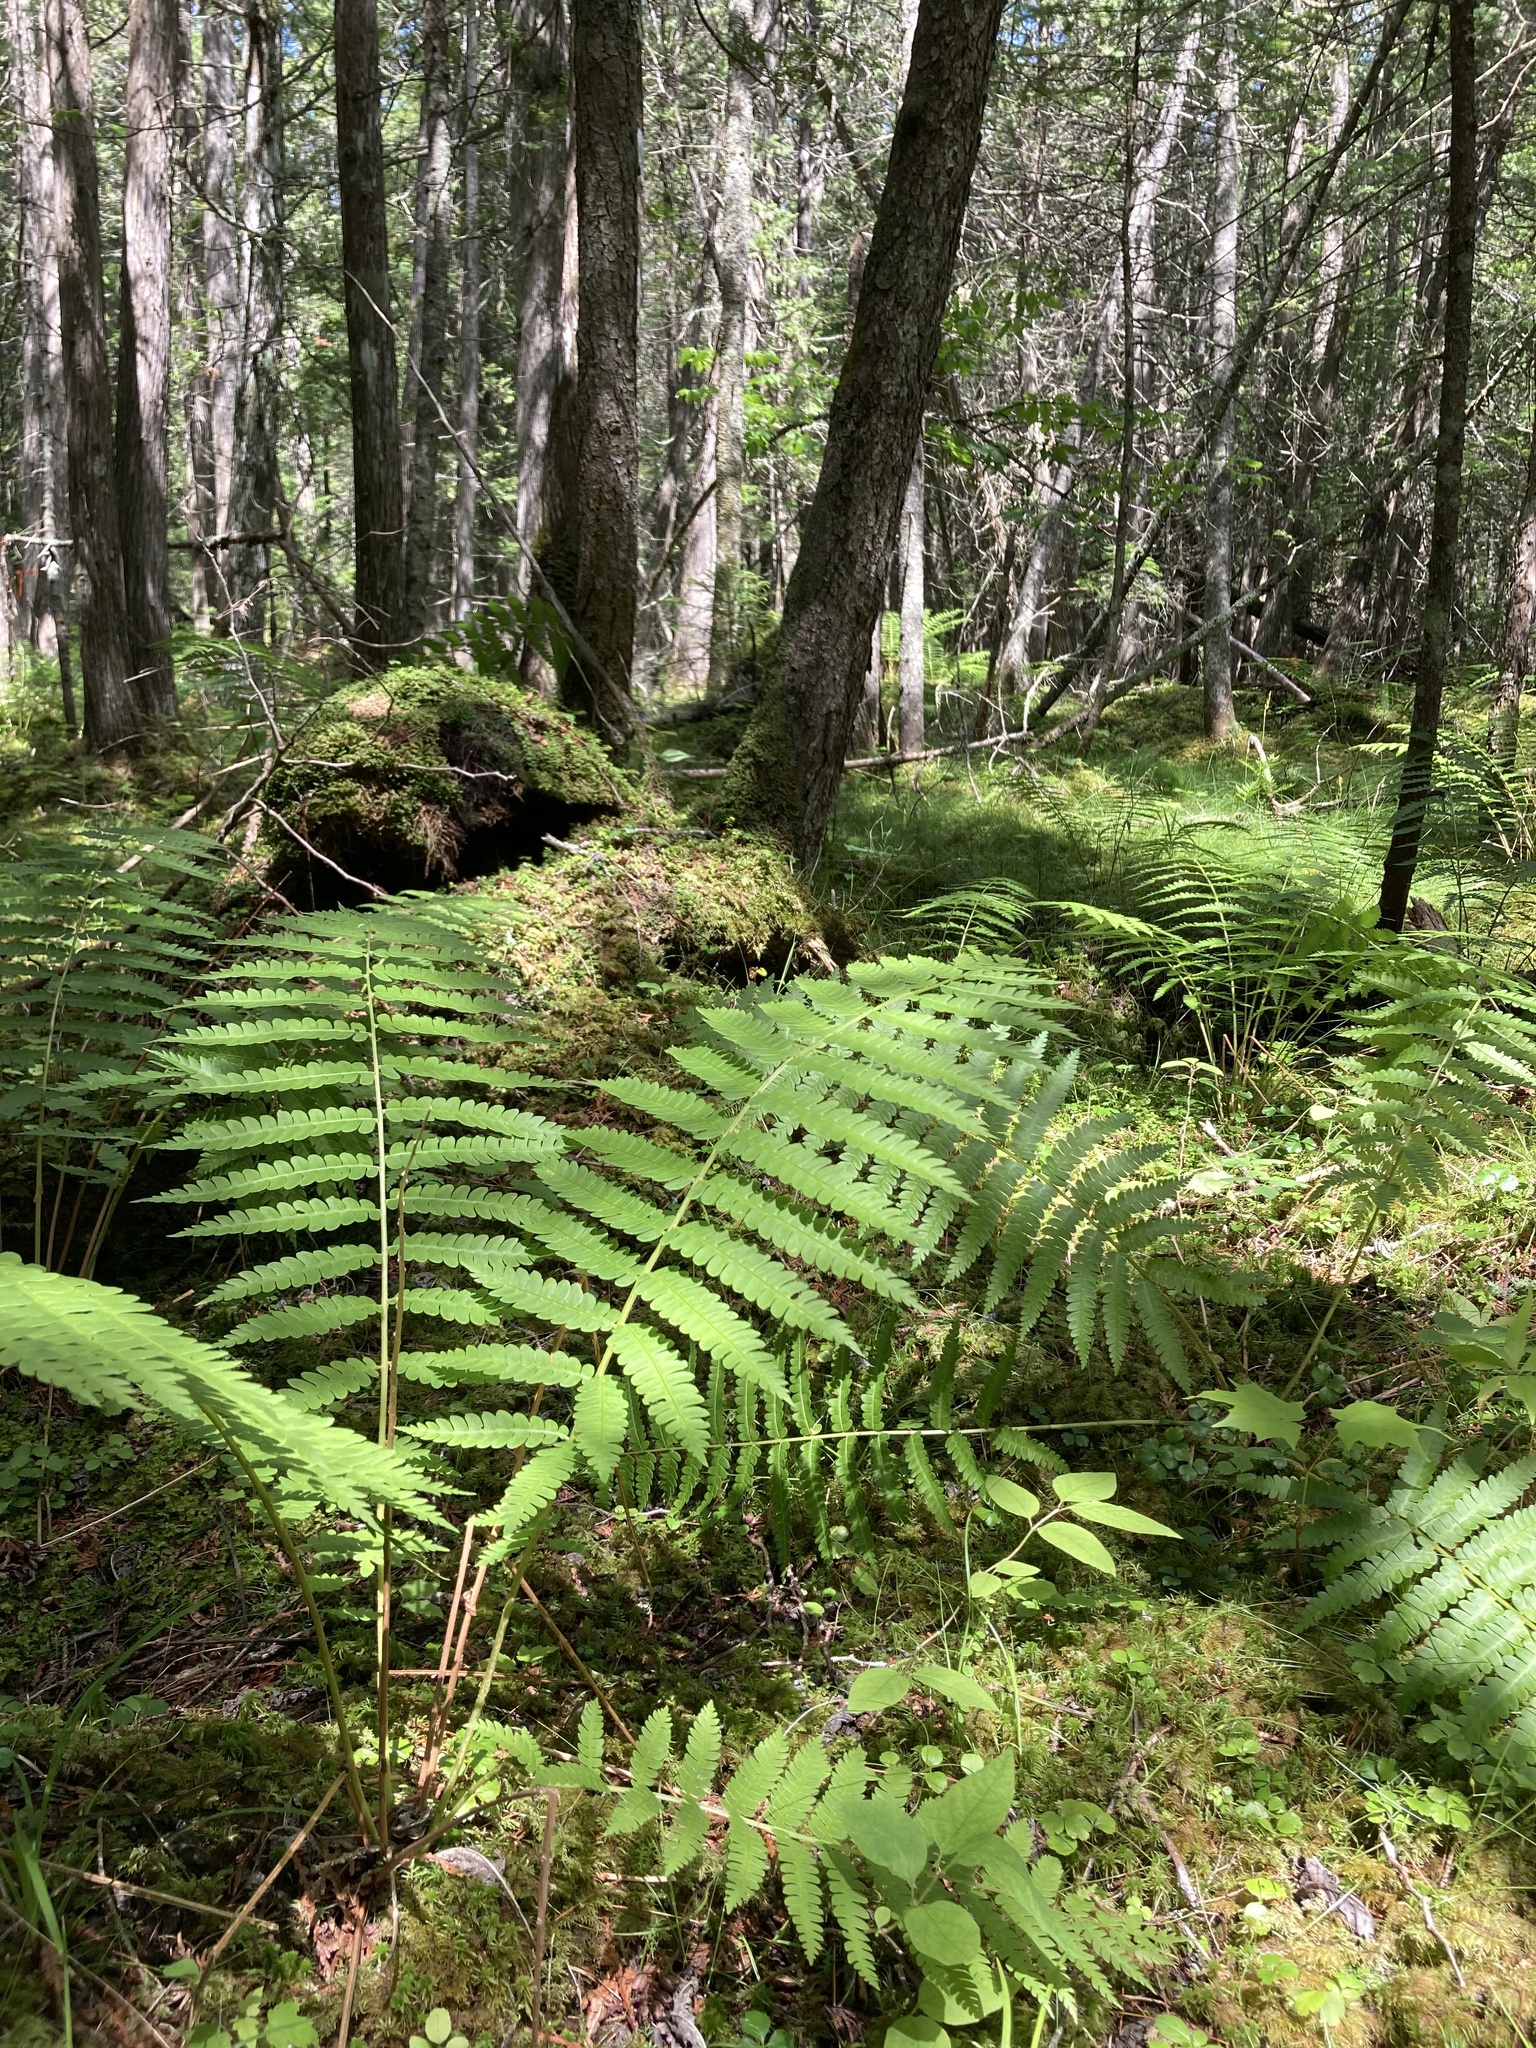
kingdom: Plantae
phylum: Tracheophyta
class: Polypodiopsida
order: Osmundales
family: Osmundaceae
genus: Osmundastrum
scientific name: Osmundastrum cinnamomeum
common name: Cinnamon fern
